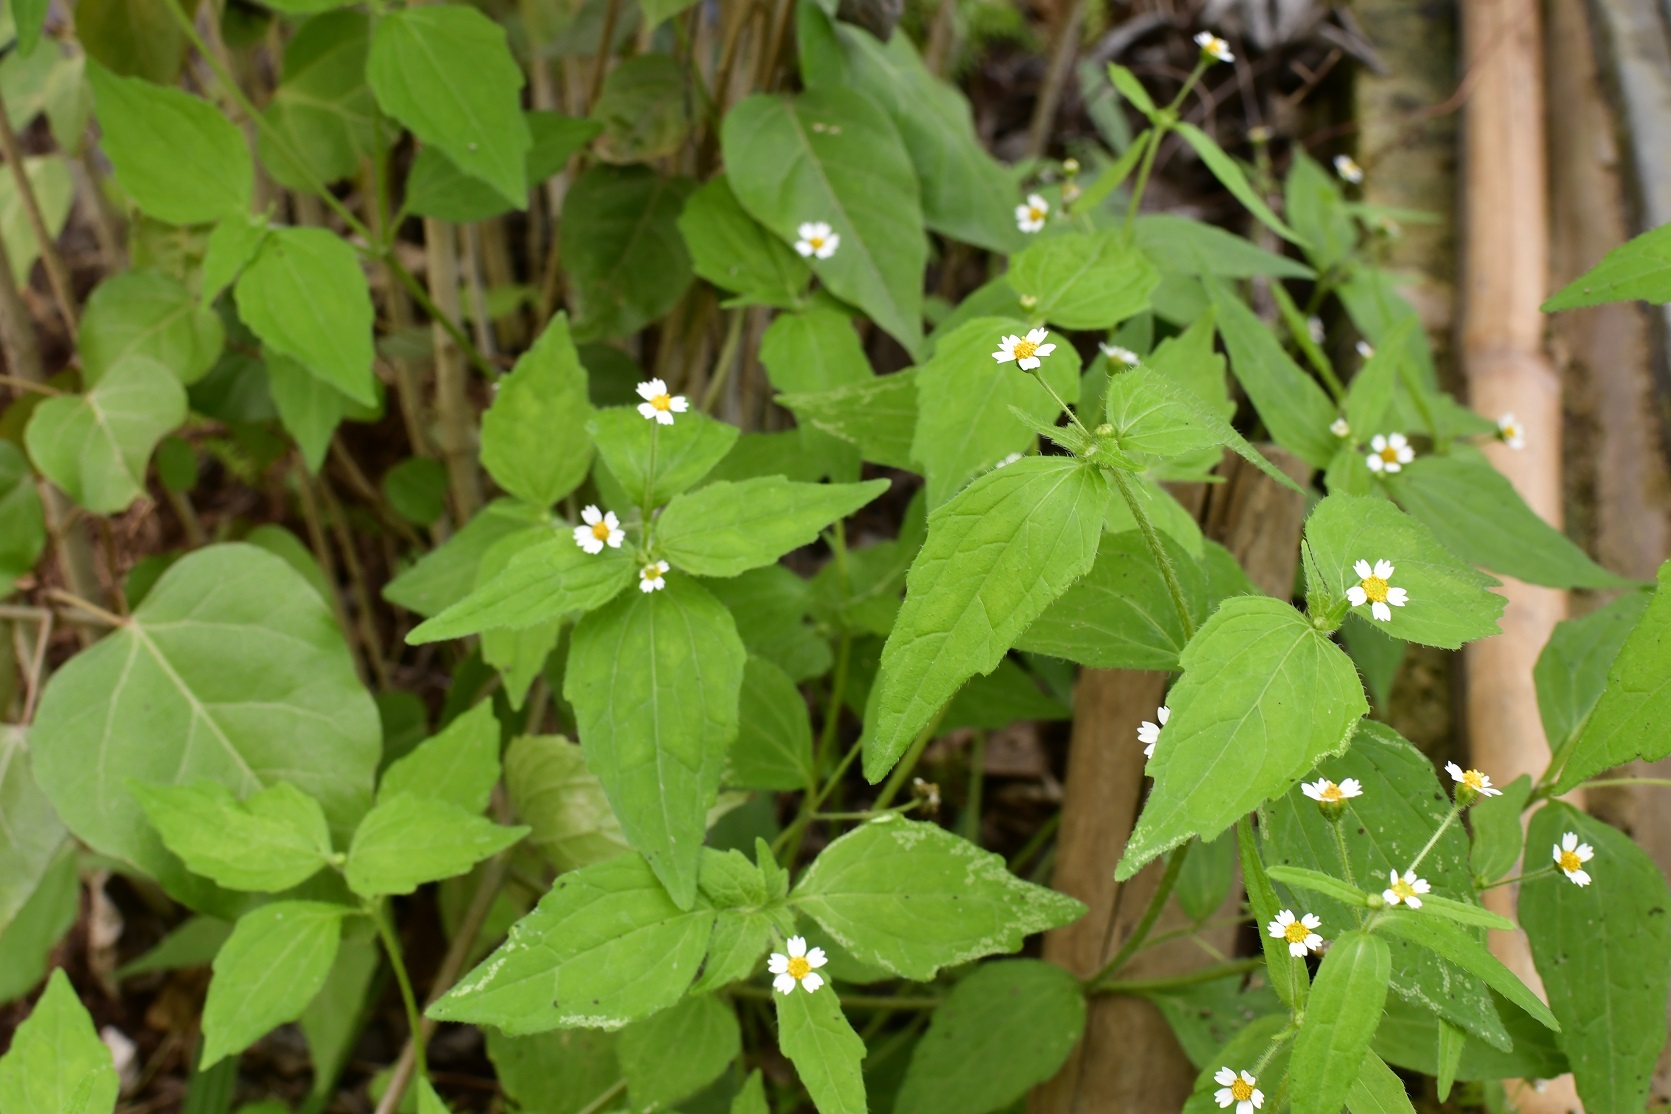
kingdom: Plantae
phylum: Tracheophyta
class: Magnoliopsida
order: Asterales
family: Asteraceae
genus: Galinsoga
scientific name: Galinsoga quadriradiata
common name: Shaggy soldier
